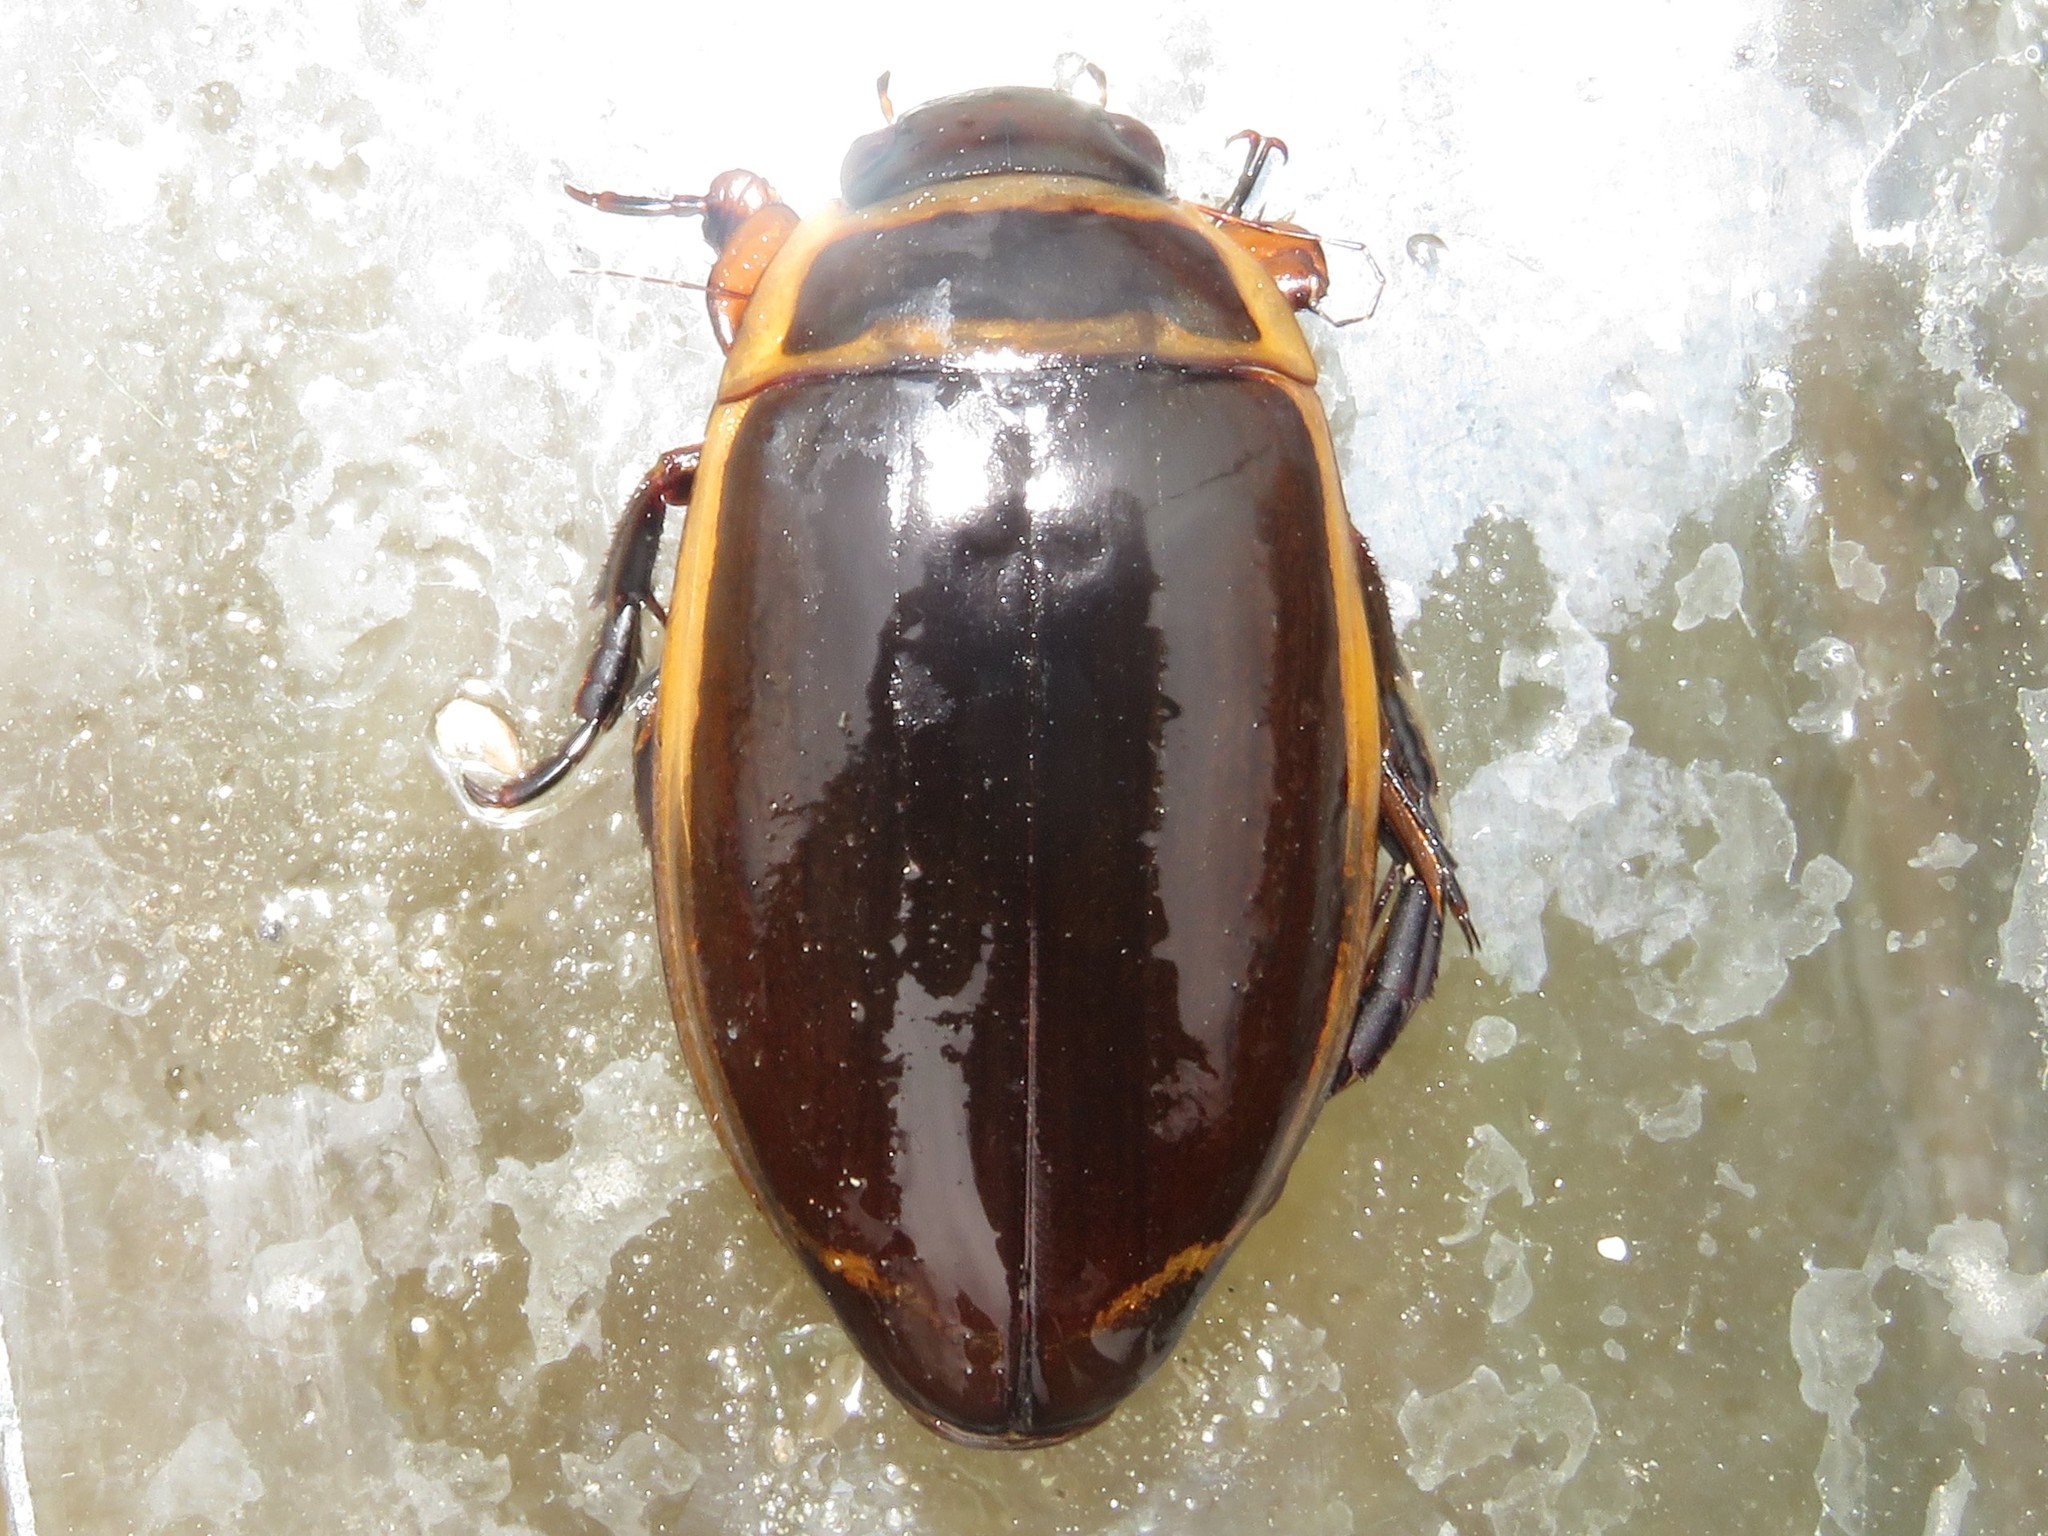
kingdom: Animalia
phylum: Arthropoda
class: Insecta
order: Coleoptera
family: Dytiscidae
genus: Dytiscus
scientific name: Dytiscus harrisii
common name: Harris's diving beetle
